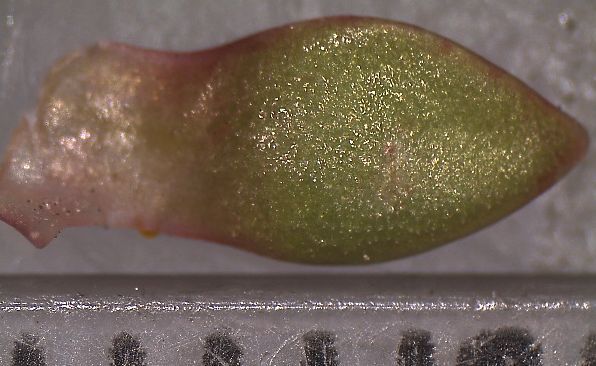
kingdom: Plantae
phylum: Tracheophyta
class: Magnoliopsida
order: Saxifragales
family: Crassulaceae
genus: Crassula
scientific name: Crassula moschata
